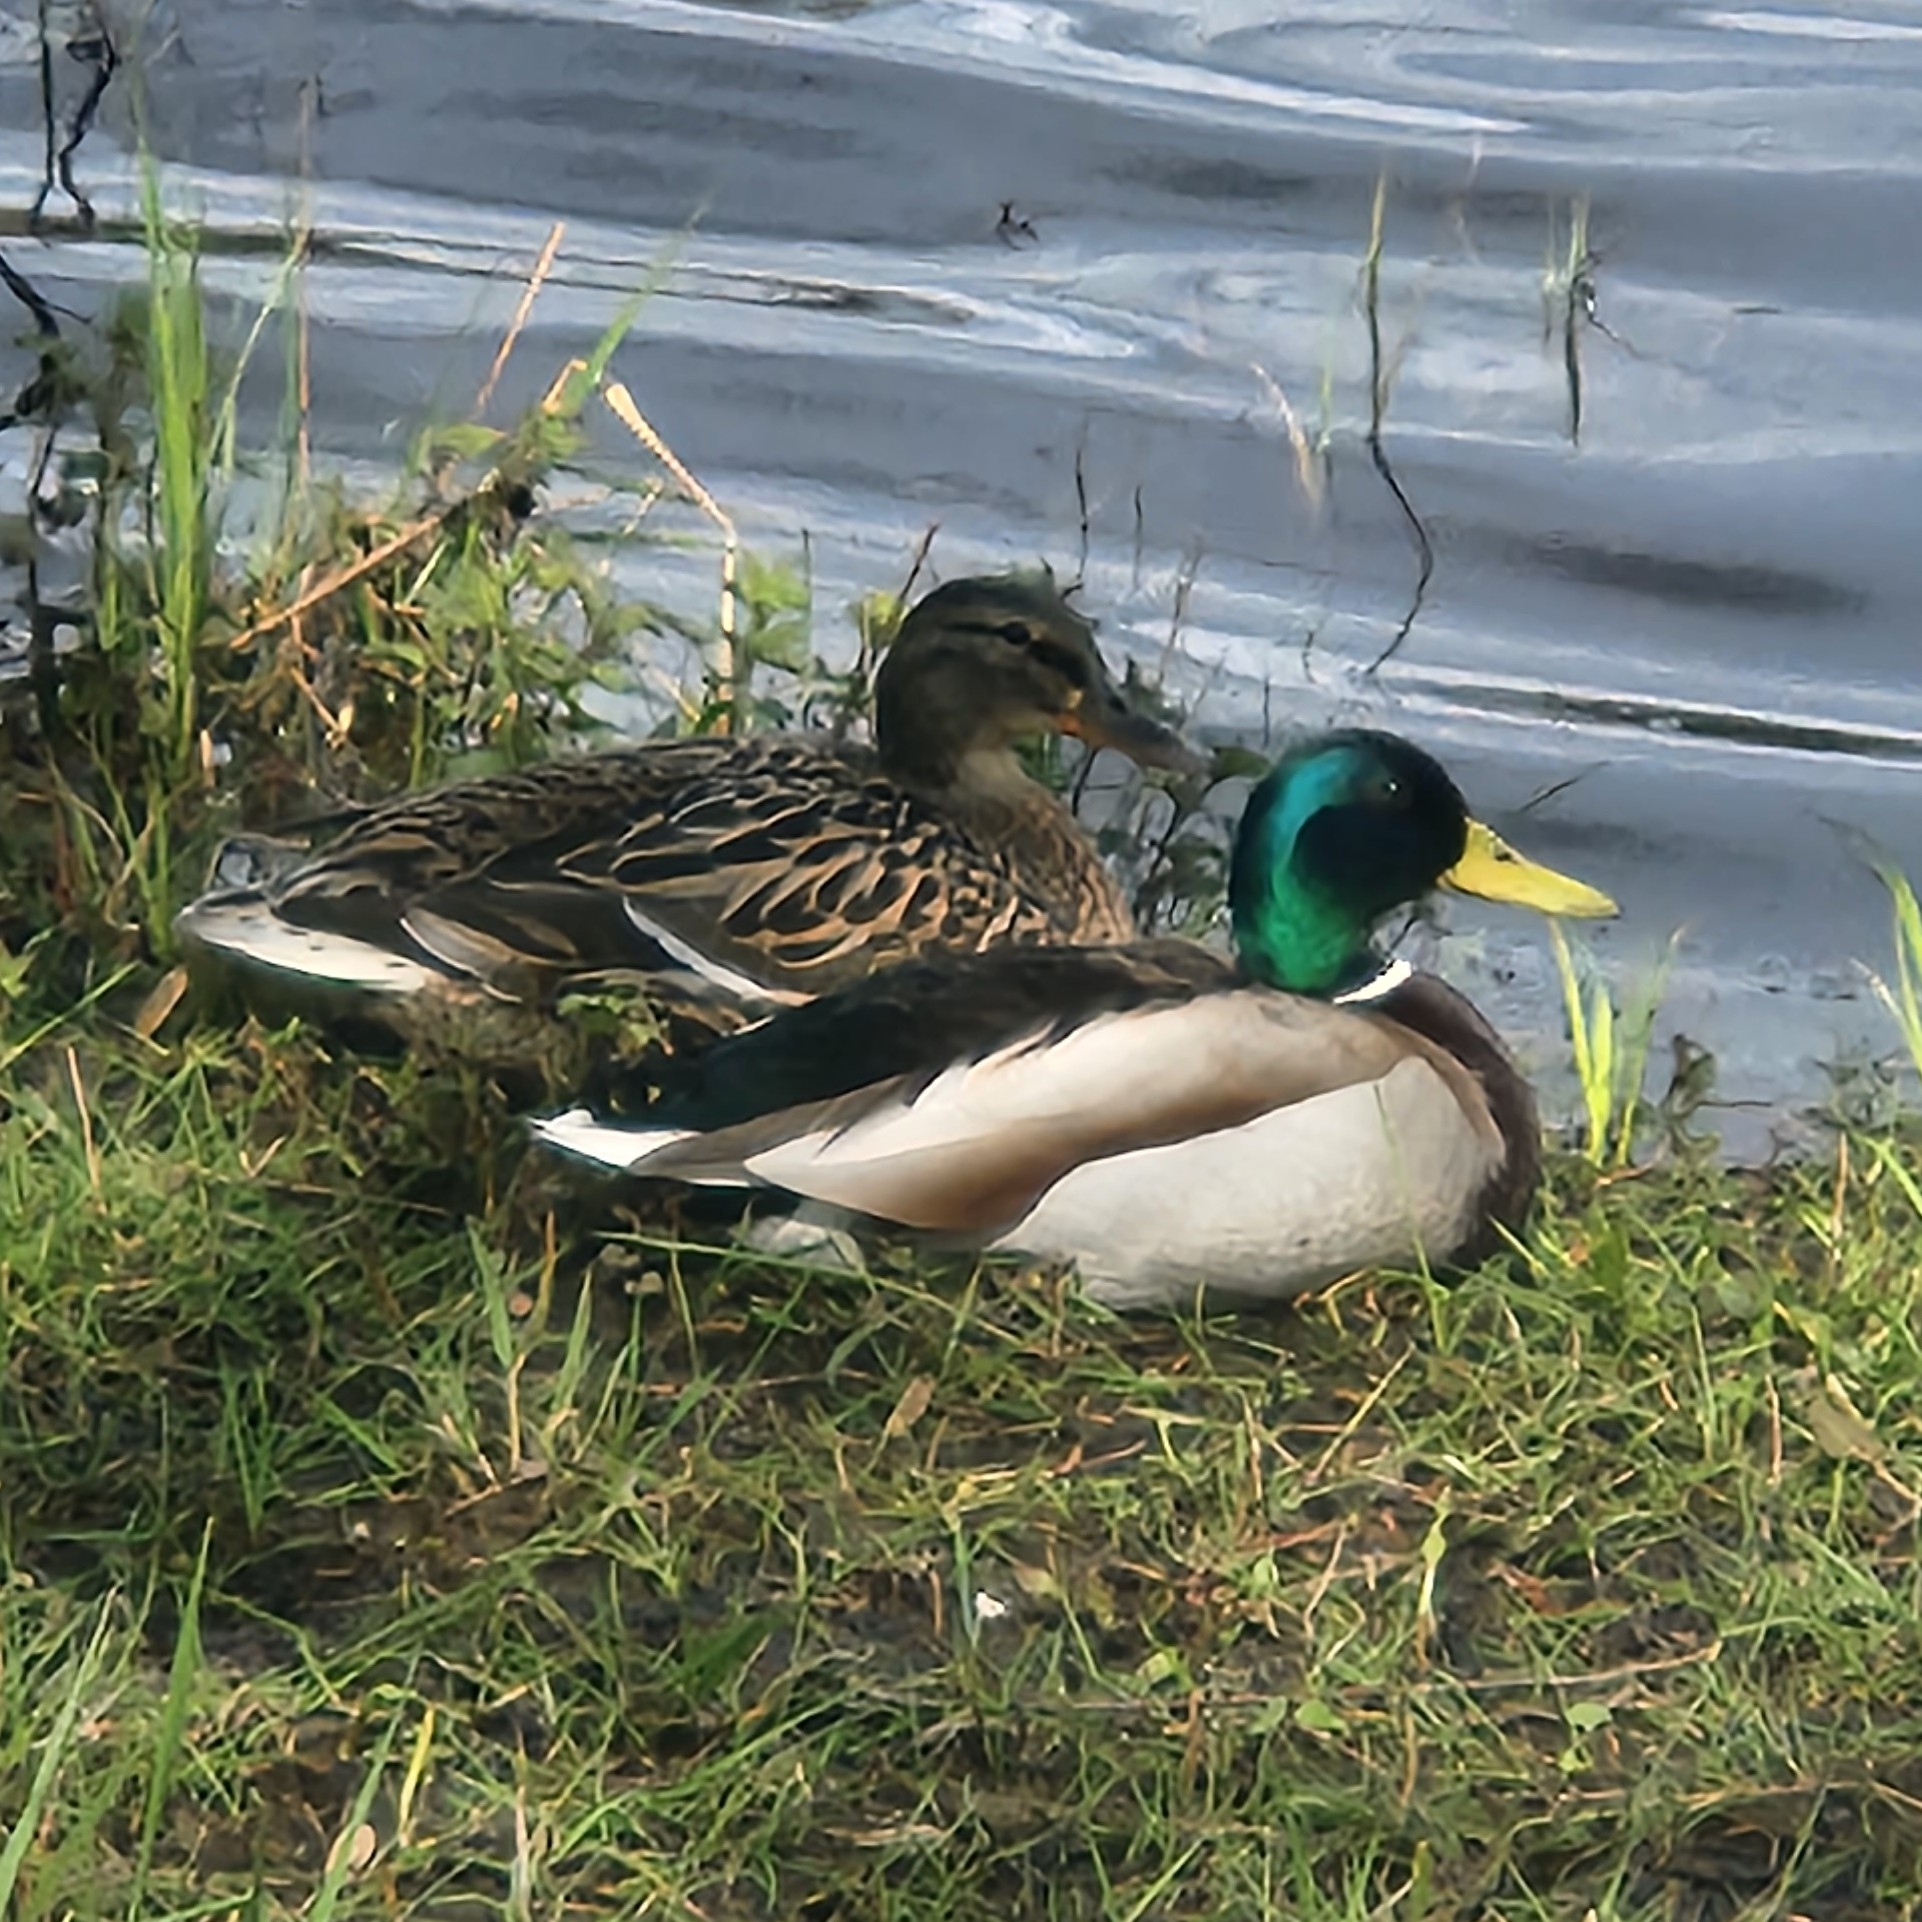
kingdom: Animalia
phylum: Chordata
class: Aves
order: Anseriformes
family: Anatidae
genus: Anas
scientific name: Anas platyrhynchos
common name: Mallard
